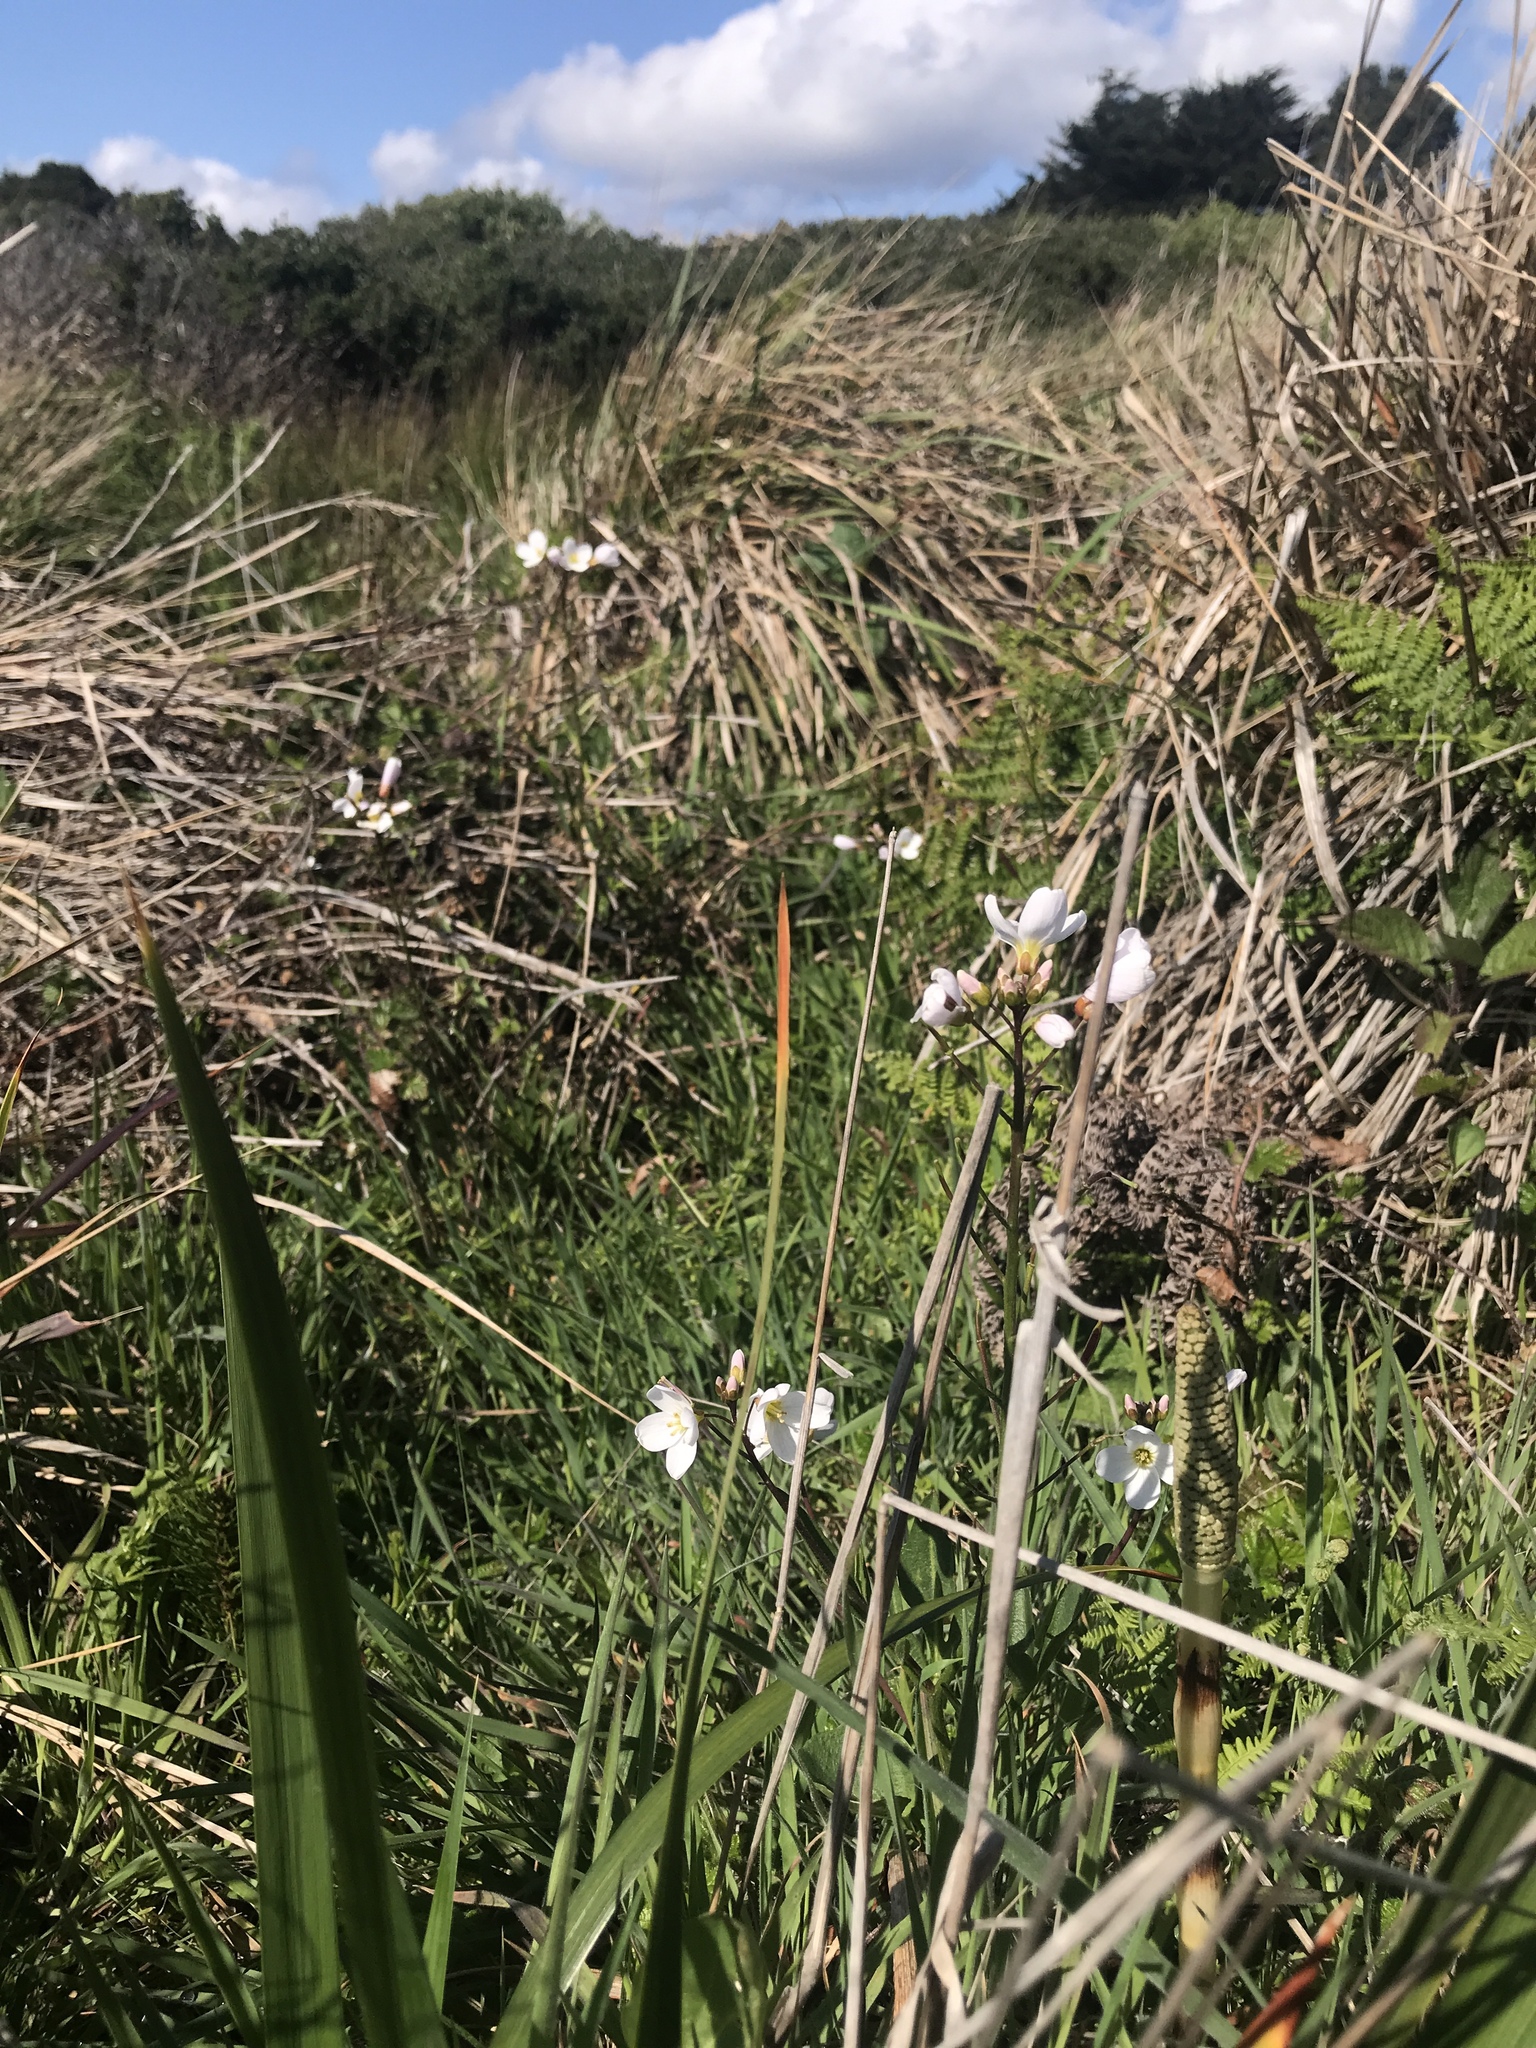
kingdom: Plantae
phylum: Tracheophyta
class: Magnoliopsida
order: Brassicales
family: Brassicaceae
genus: Cardamine
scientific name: Cardamine californica
